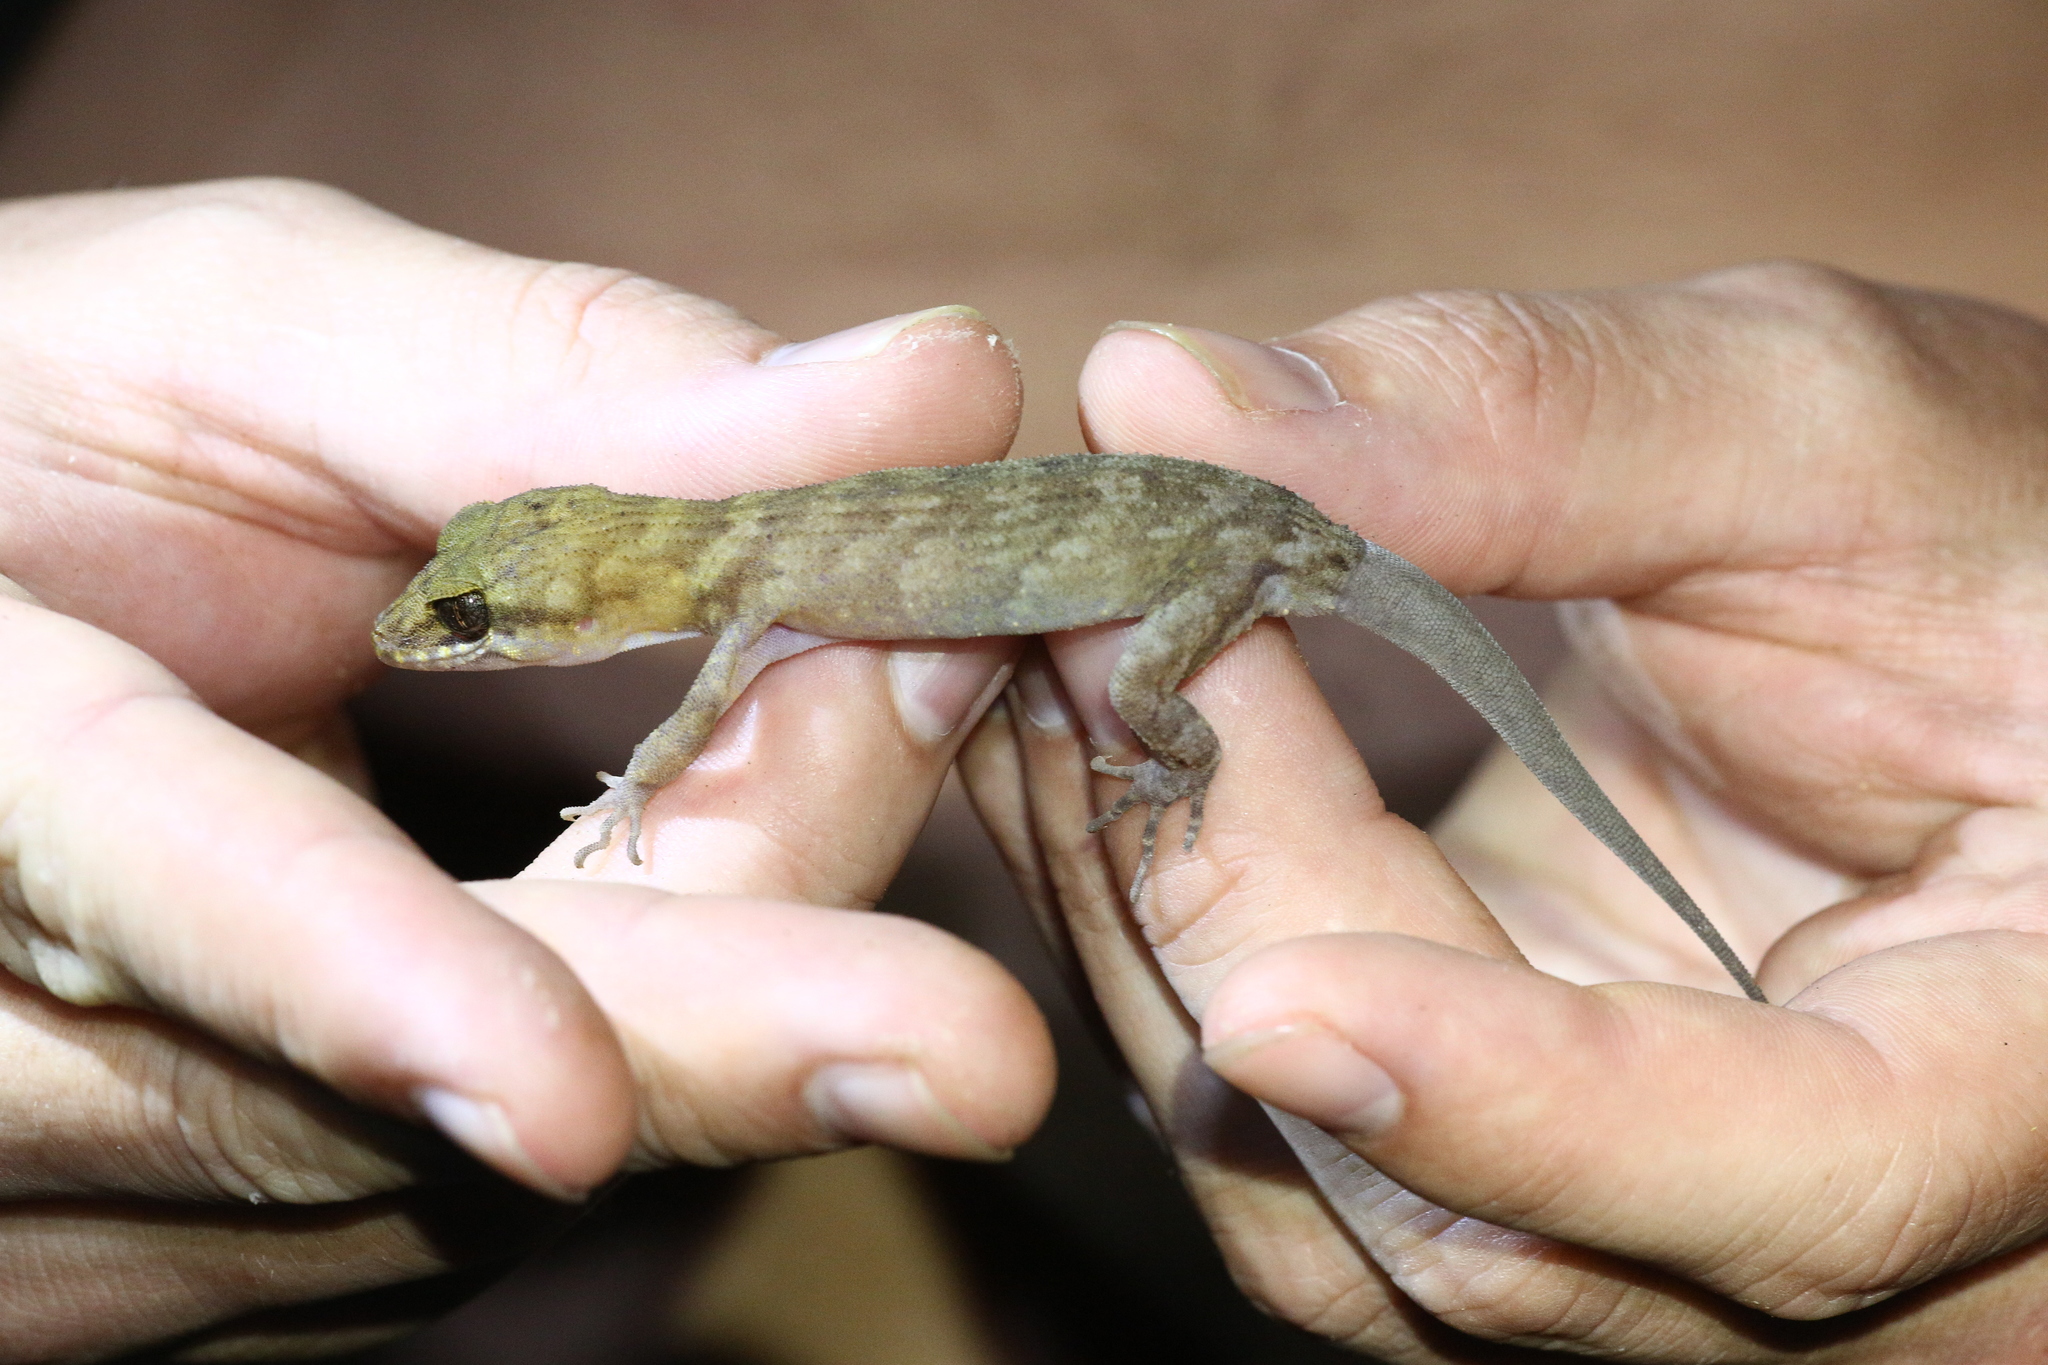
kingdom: Animalia
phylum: Chordata
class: Squamata
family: Gekkonidae
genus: Nactus
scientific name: Nactus pelagicus
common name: Pelagic gecko
